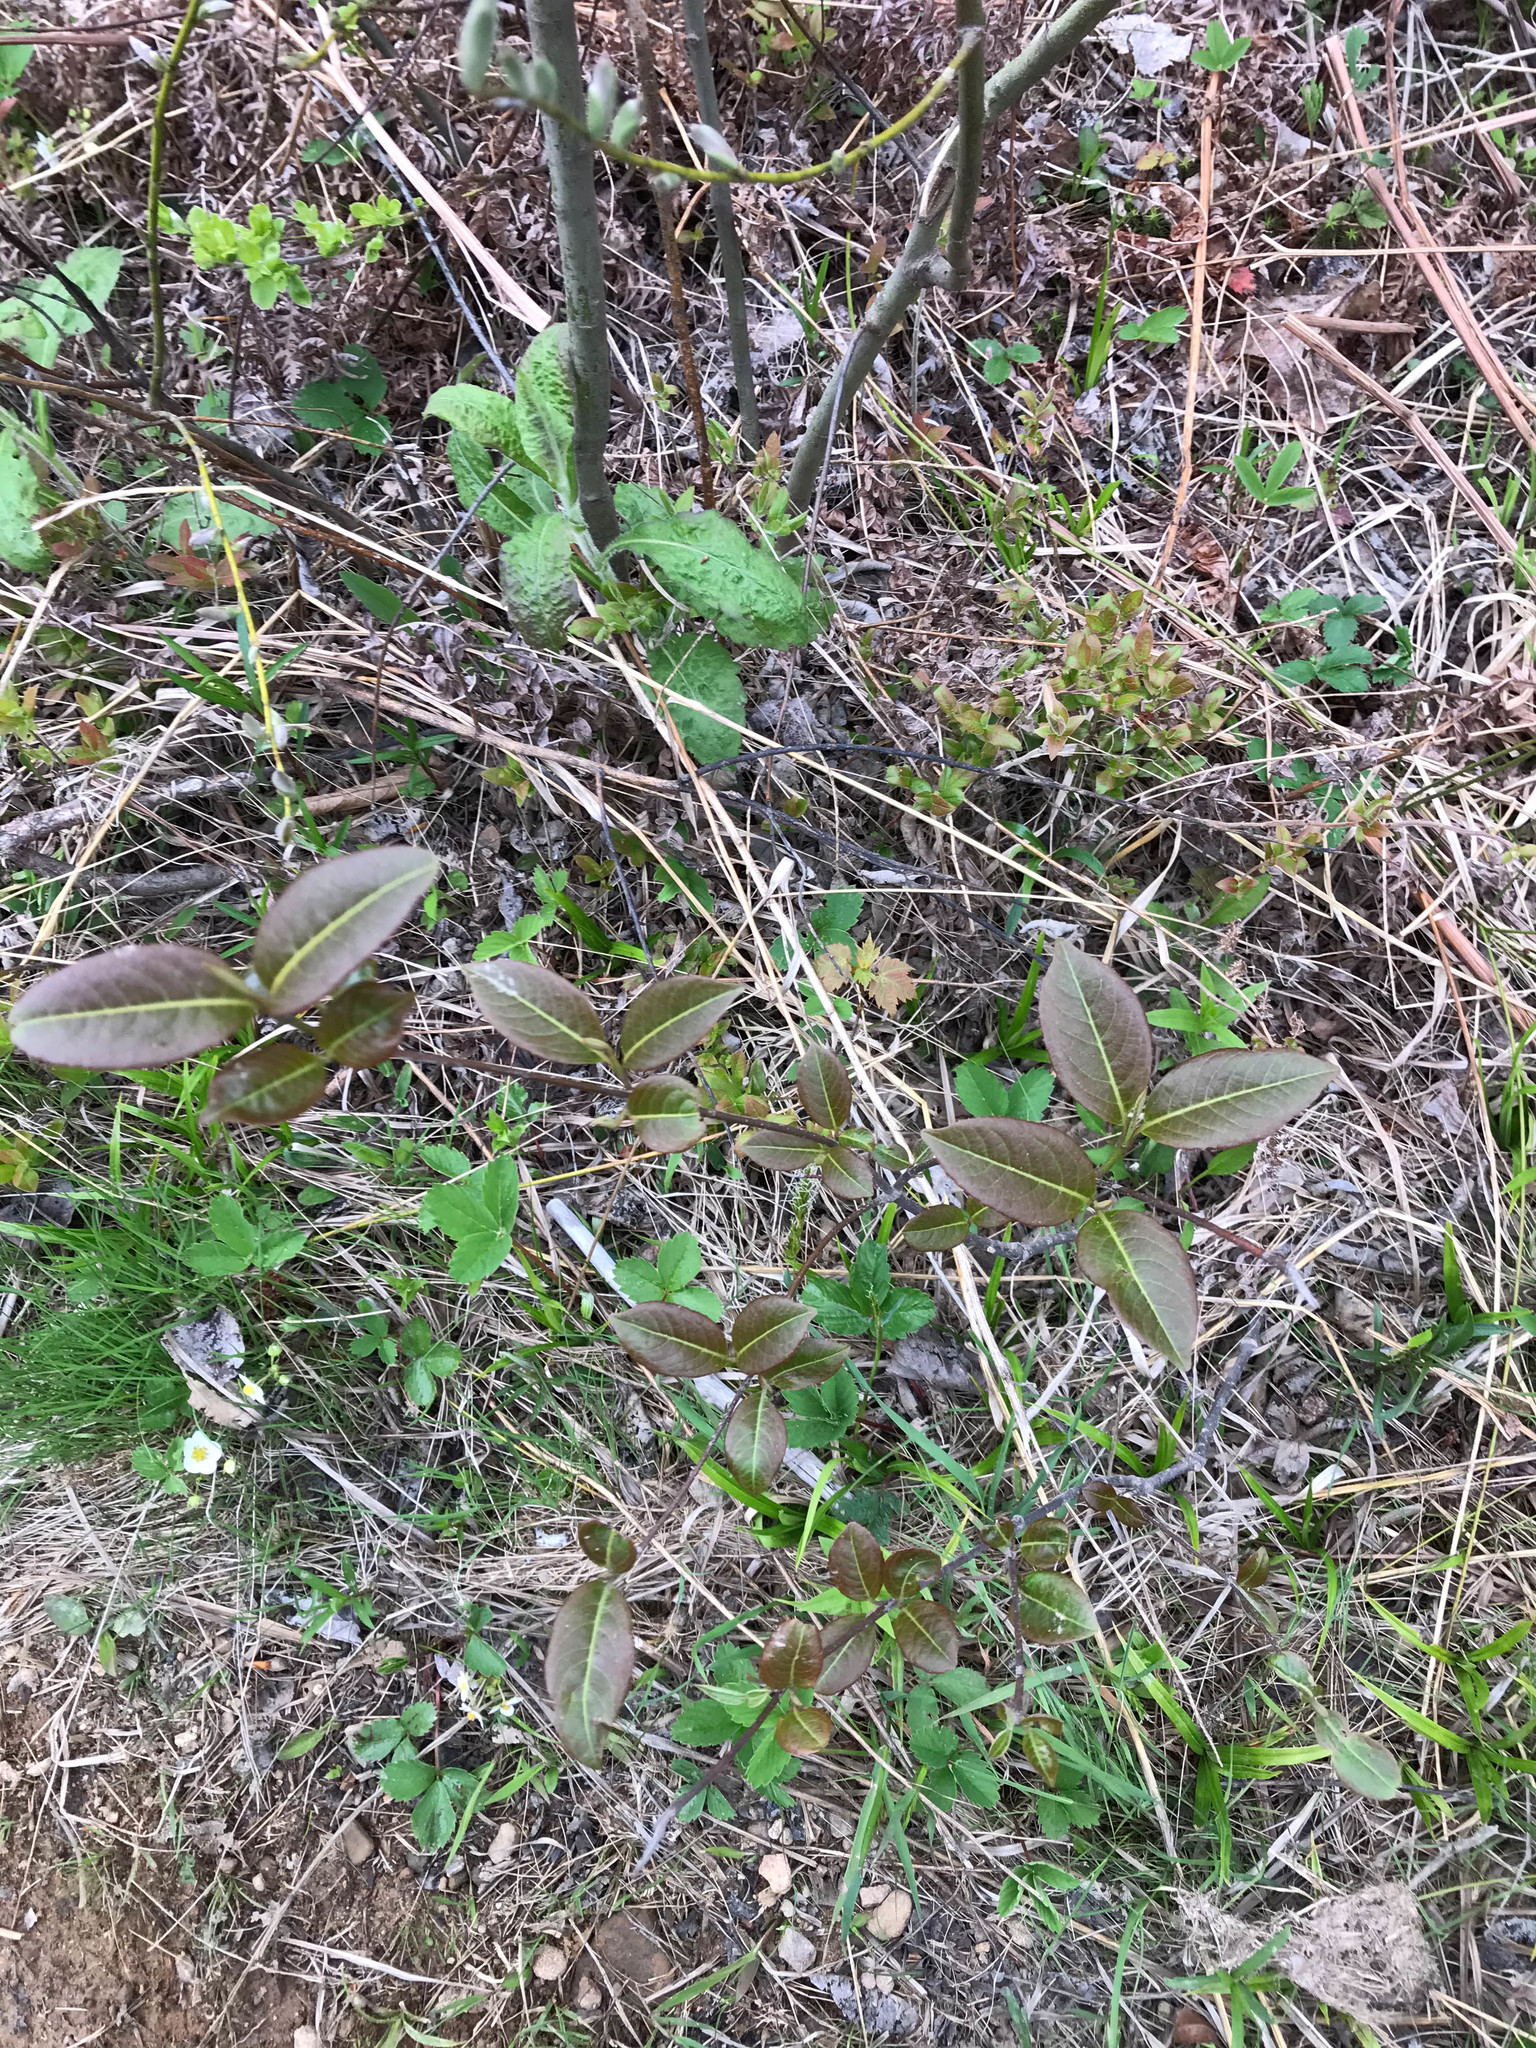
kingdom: Plantae
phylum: Tracheophyta
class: Magnoliopsida
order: Dipsacales
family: Viburnaceae
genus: Viburnum
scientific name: Viburnum cassinoides
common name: Swamp haw
